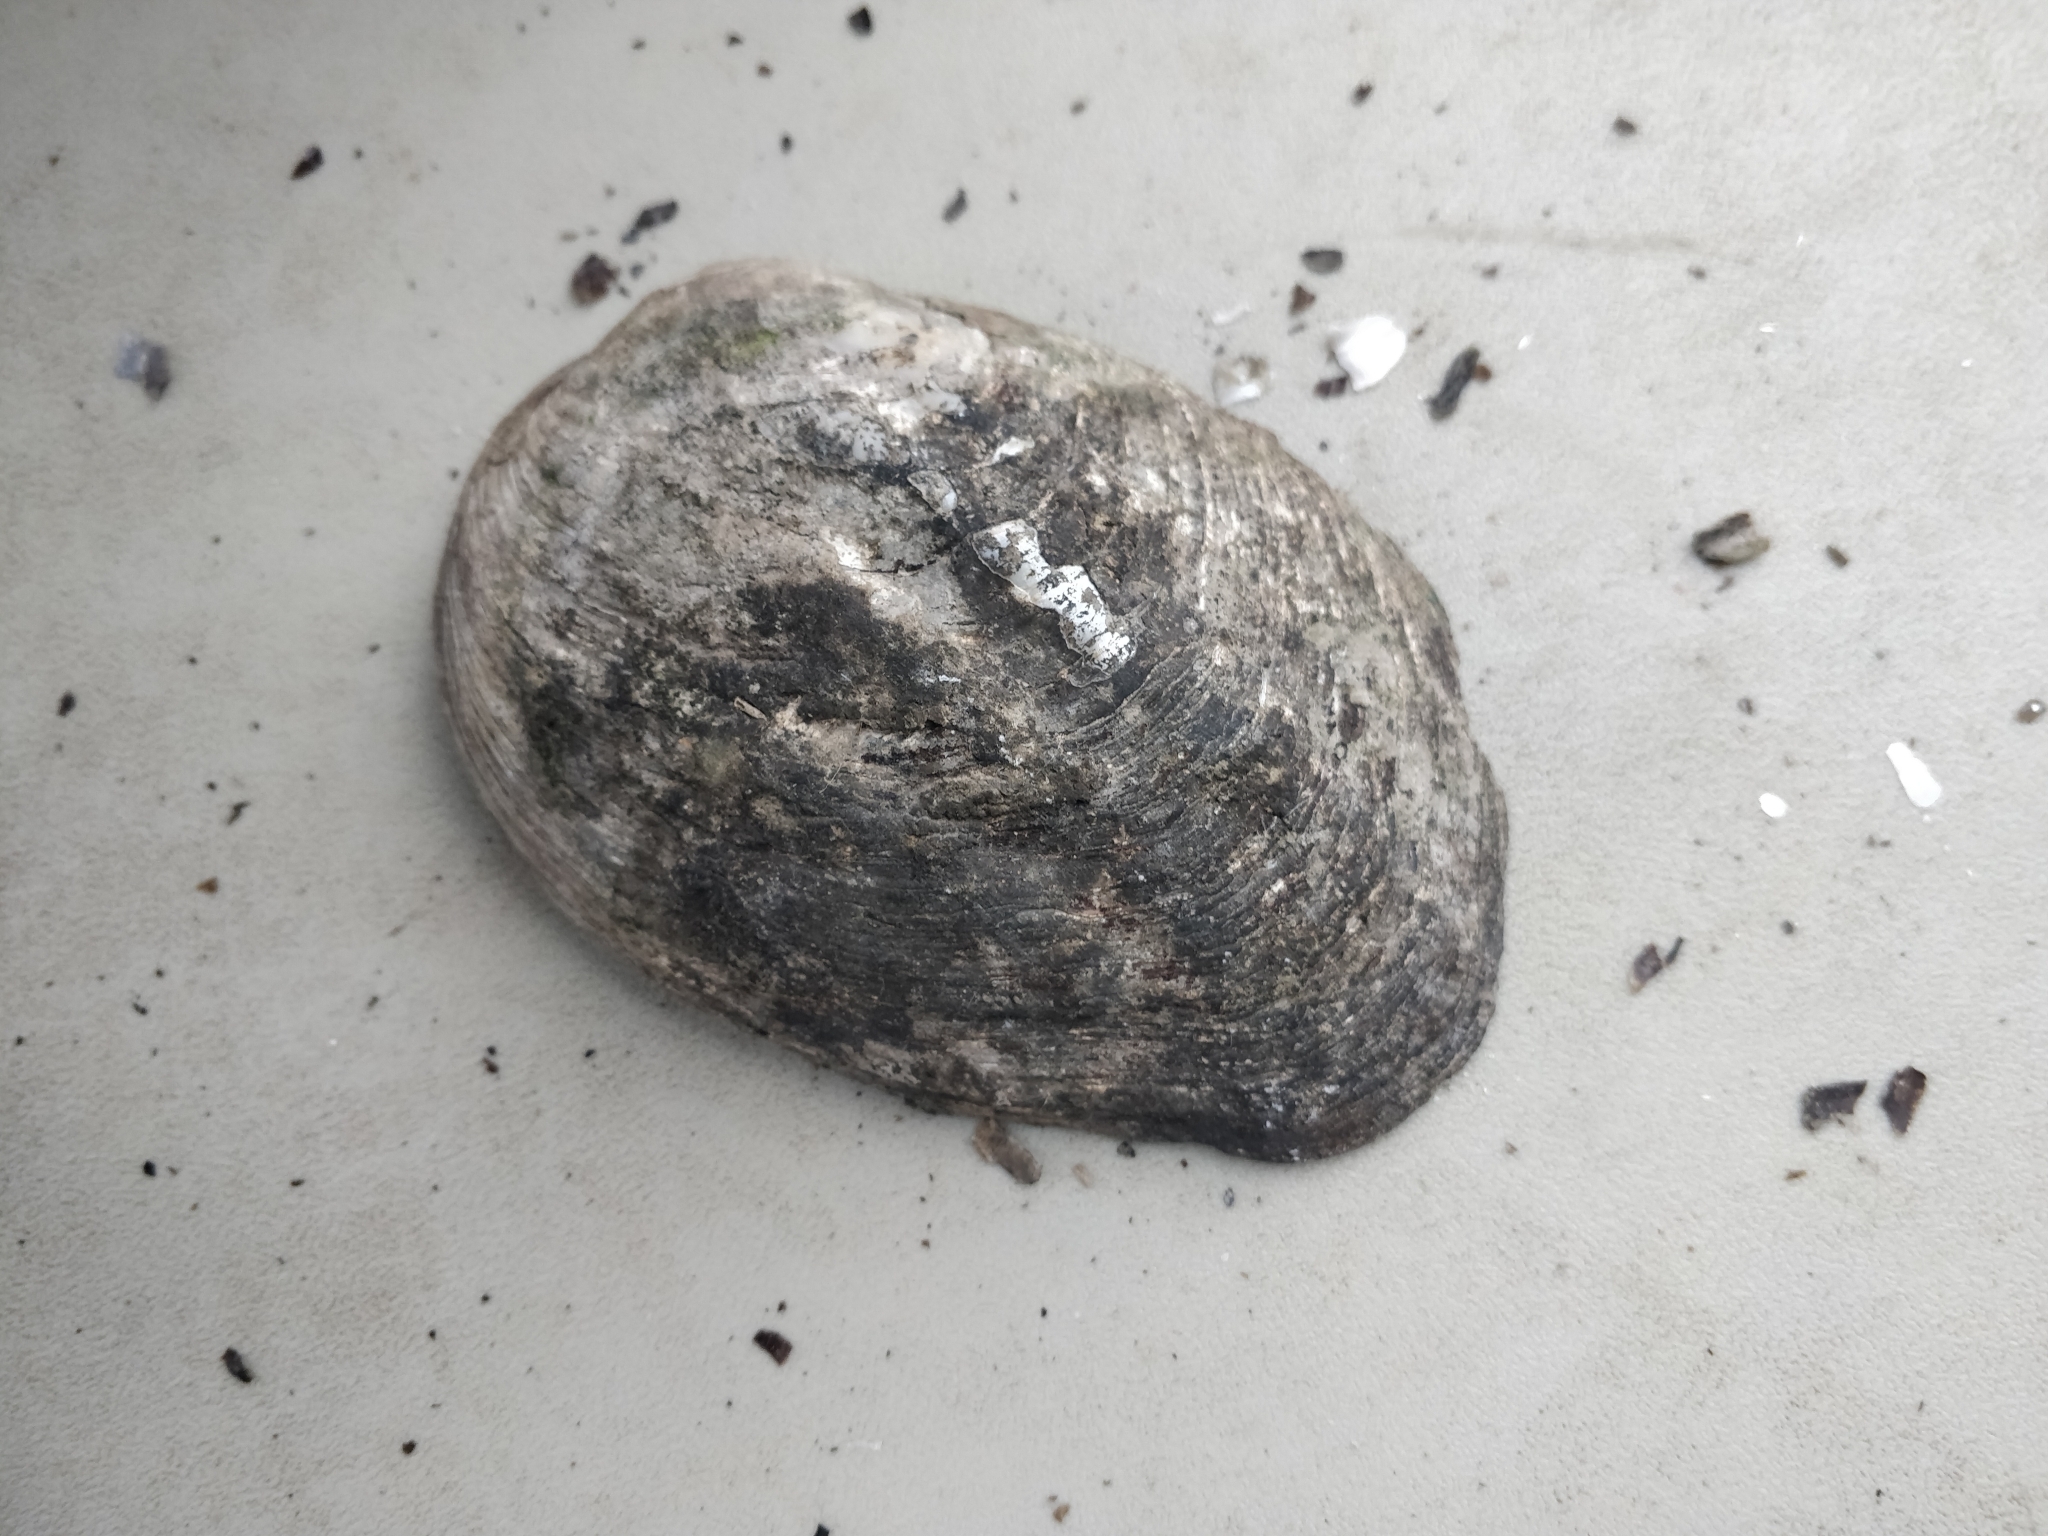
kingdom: Animalia
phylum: Mollusca
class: Bivalvia
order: Unionida
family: Unionidae
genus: Amblema
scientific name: Amblema plicata
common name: Threeridge
